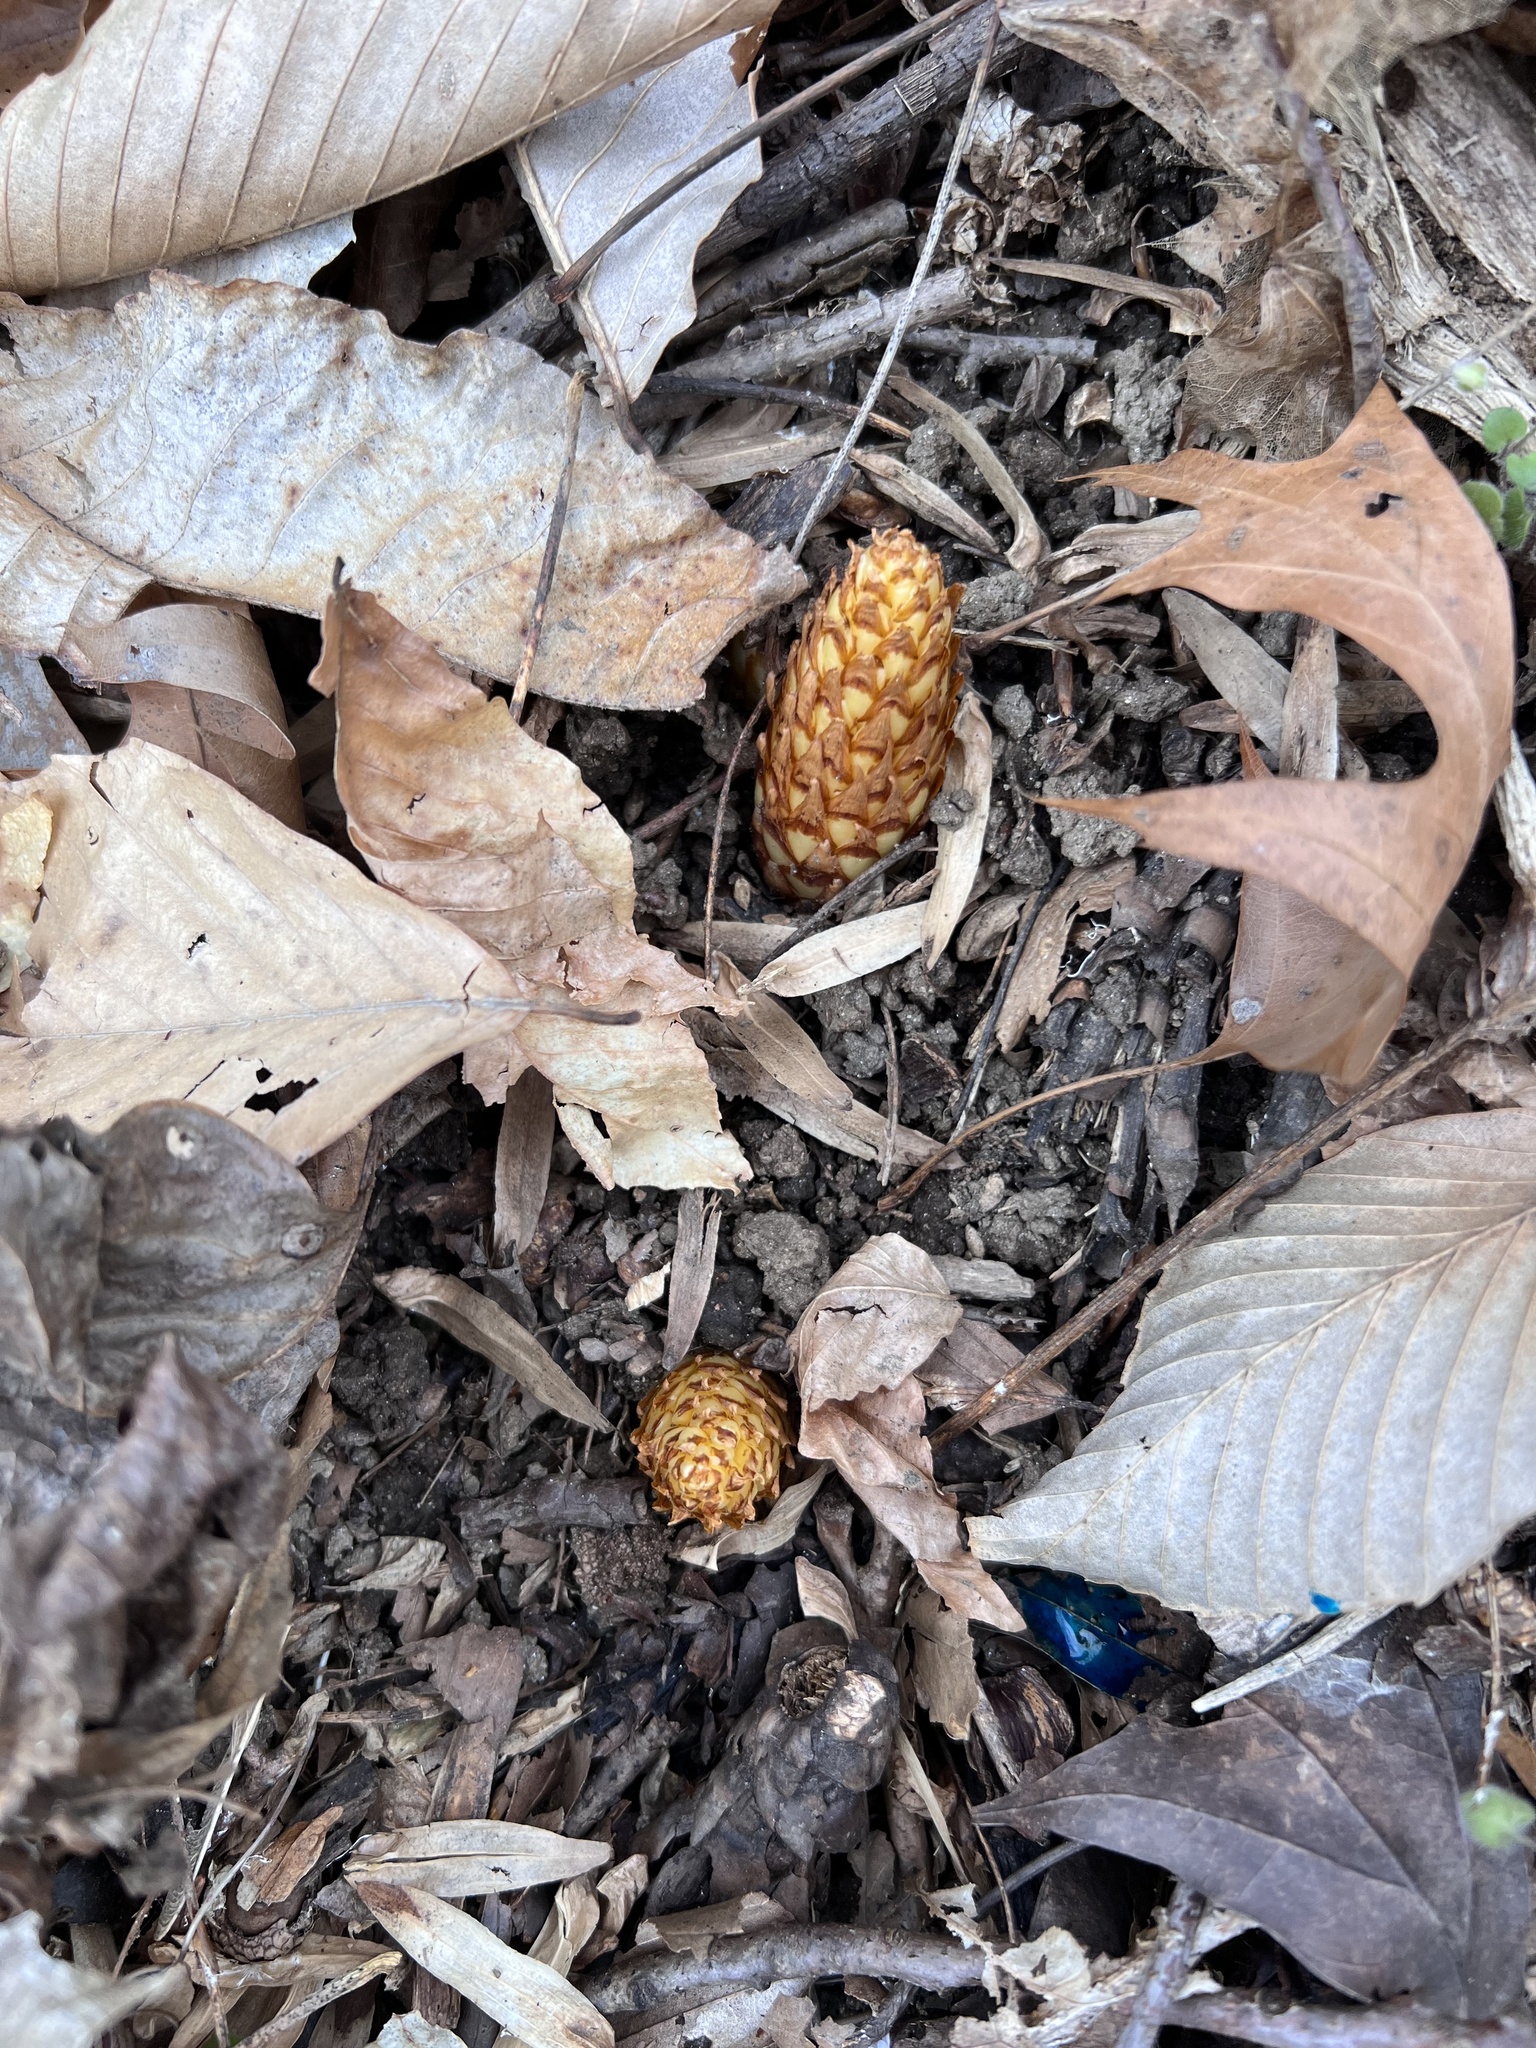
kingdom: Plantae
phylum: Tracheophyta
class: Magnoliopsida
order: Lamiales
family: Orobanchaceae
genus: Conopholis
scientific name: Conopholis americana
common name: American cancer-root
